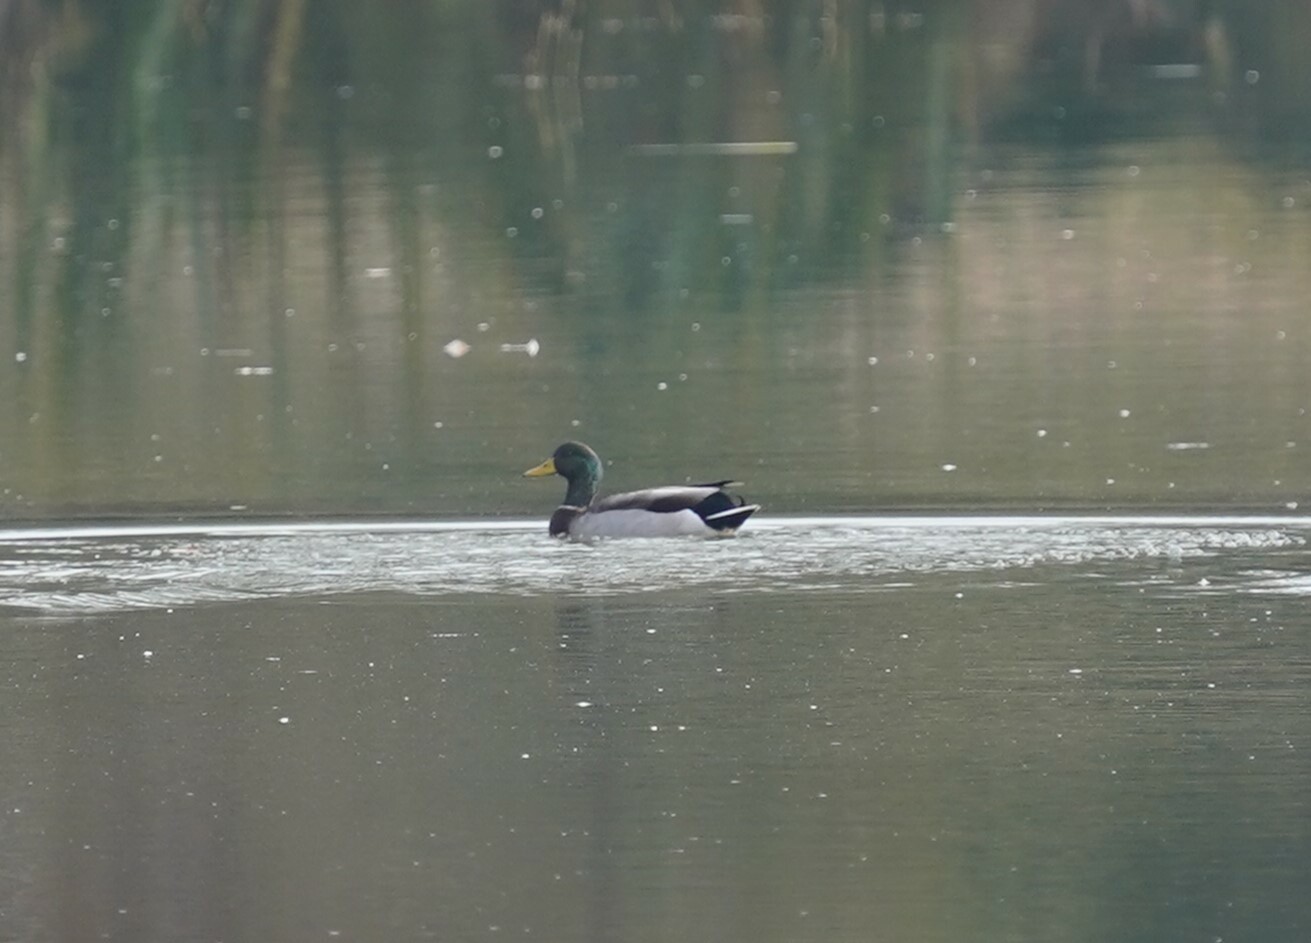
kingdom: Animalia
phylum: Chordata
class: Aves
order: Anseriformes
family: Anatidae
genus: Anas
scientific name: Anas platyrhynchos
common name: Mallard
